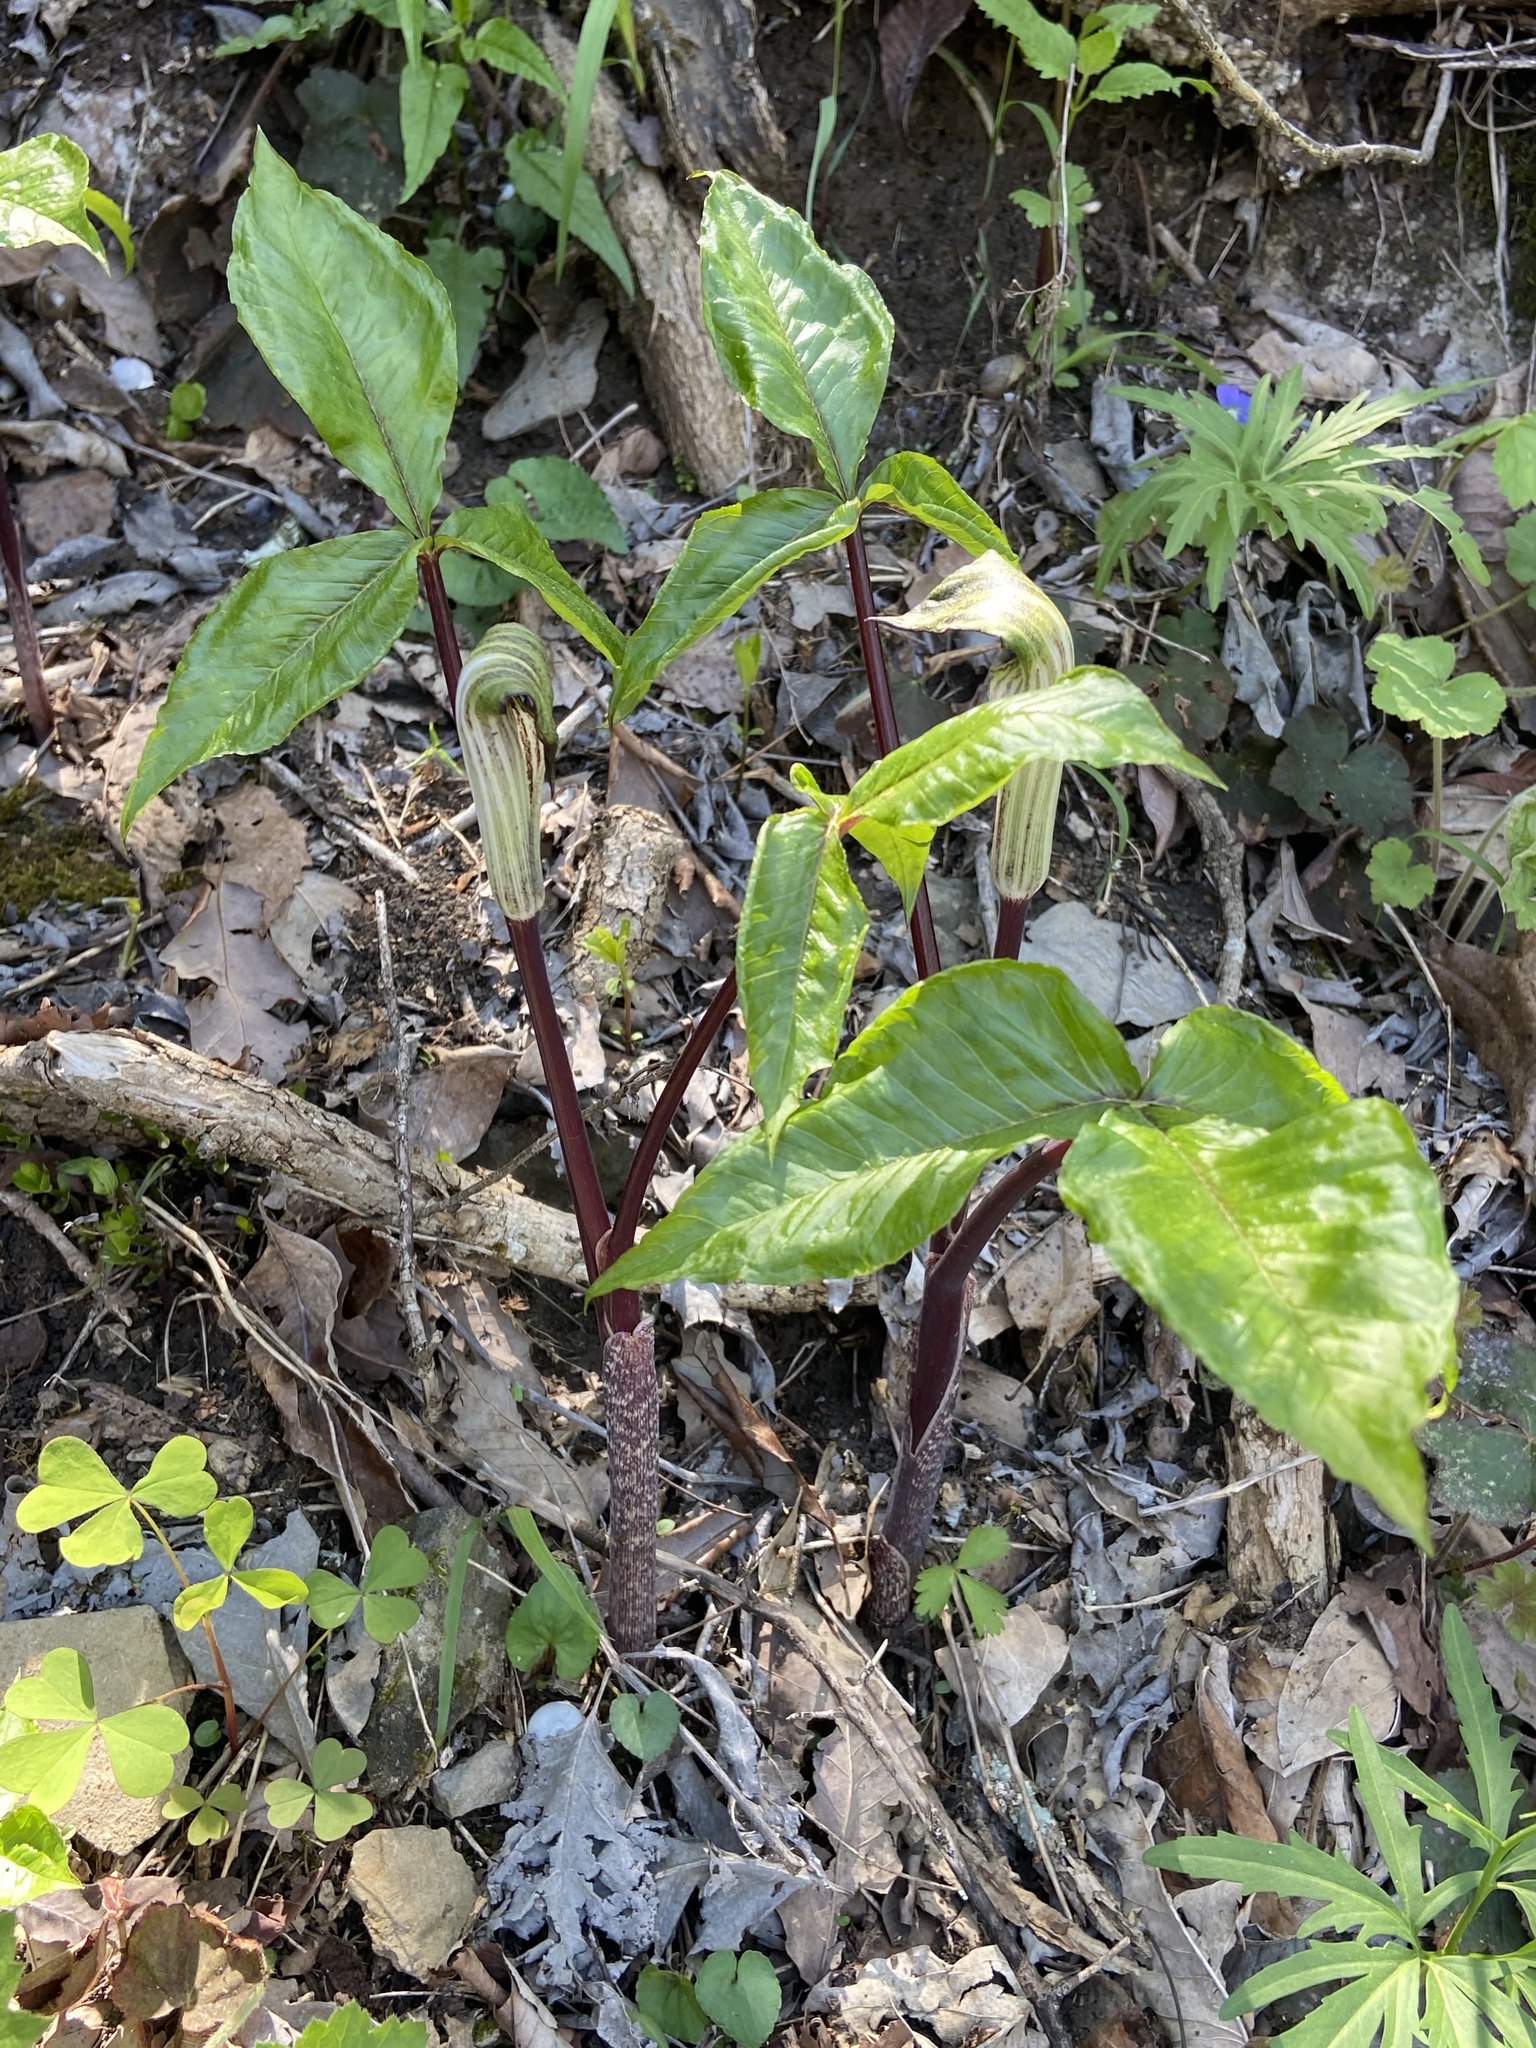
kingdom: Plantae
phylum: Tracheophyta
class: Liliopsida
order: Alismatales
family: Araceae
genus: Arisaema
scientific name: Arisaema triphyllum
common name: Jack-in-the-pulpit
